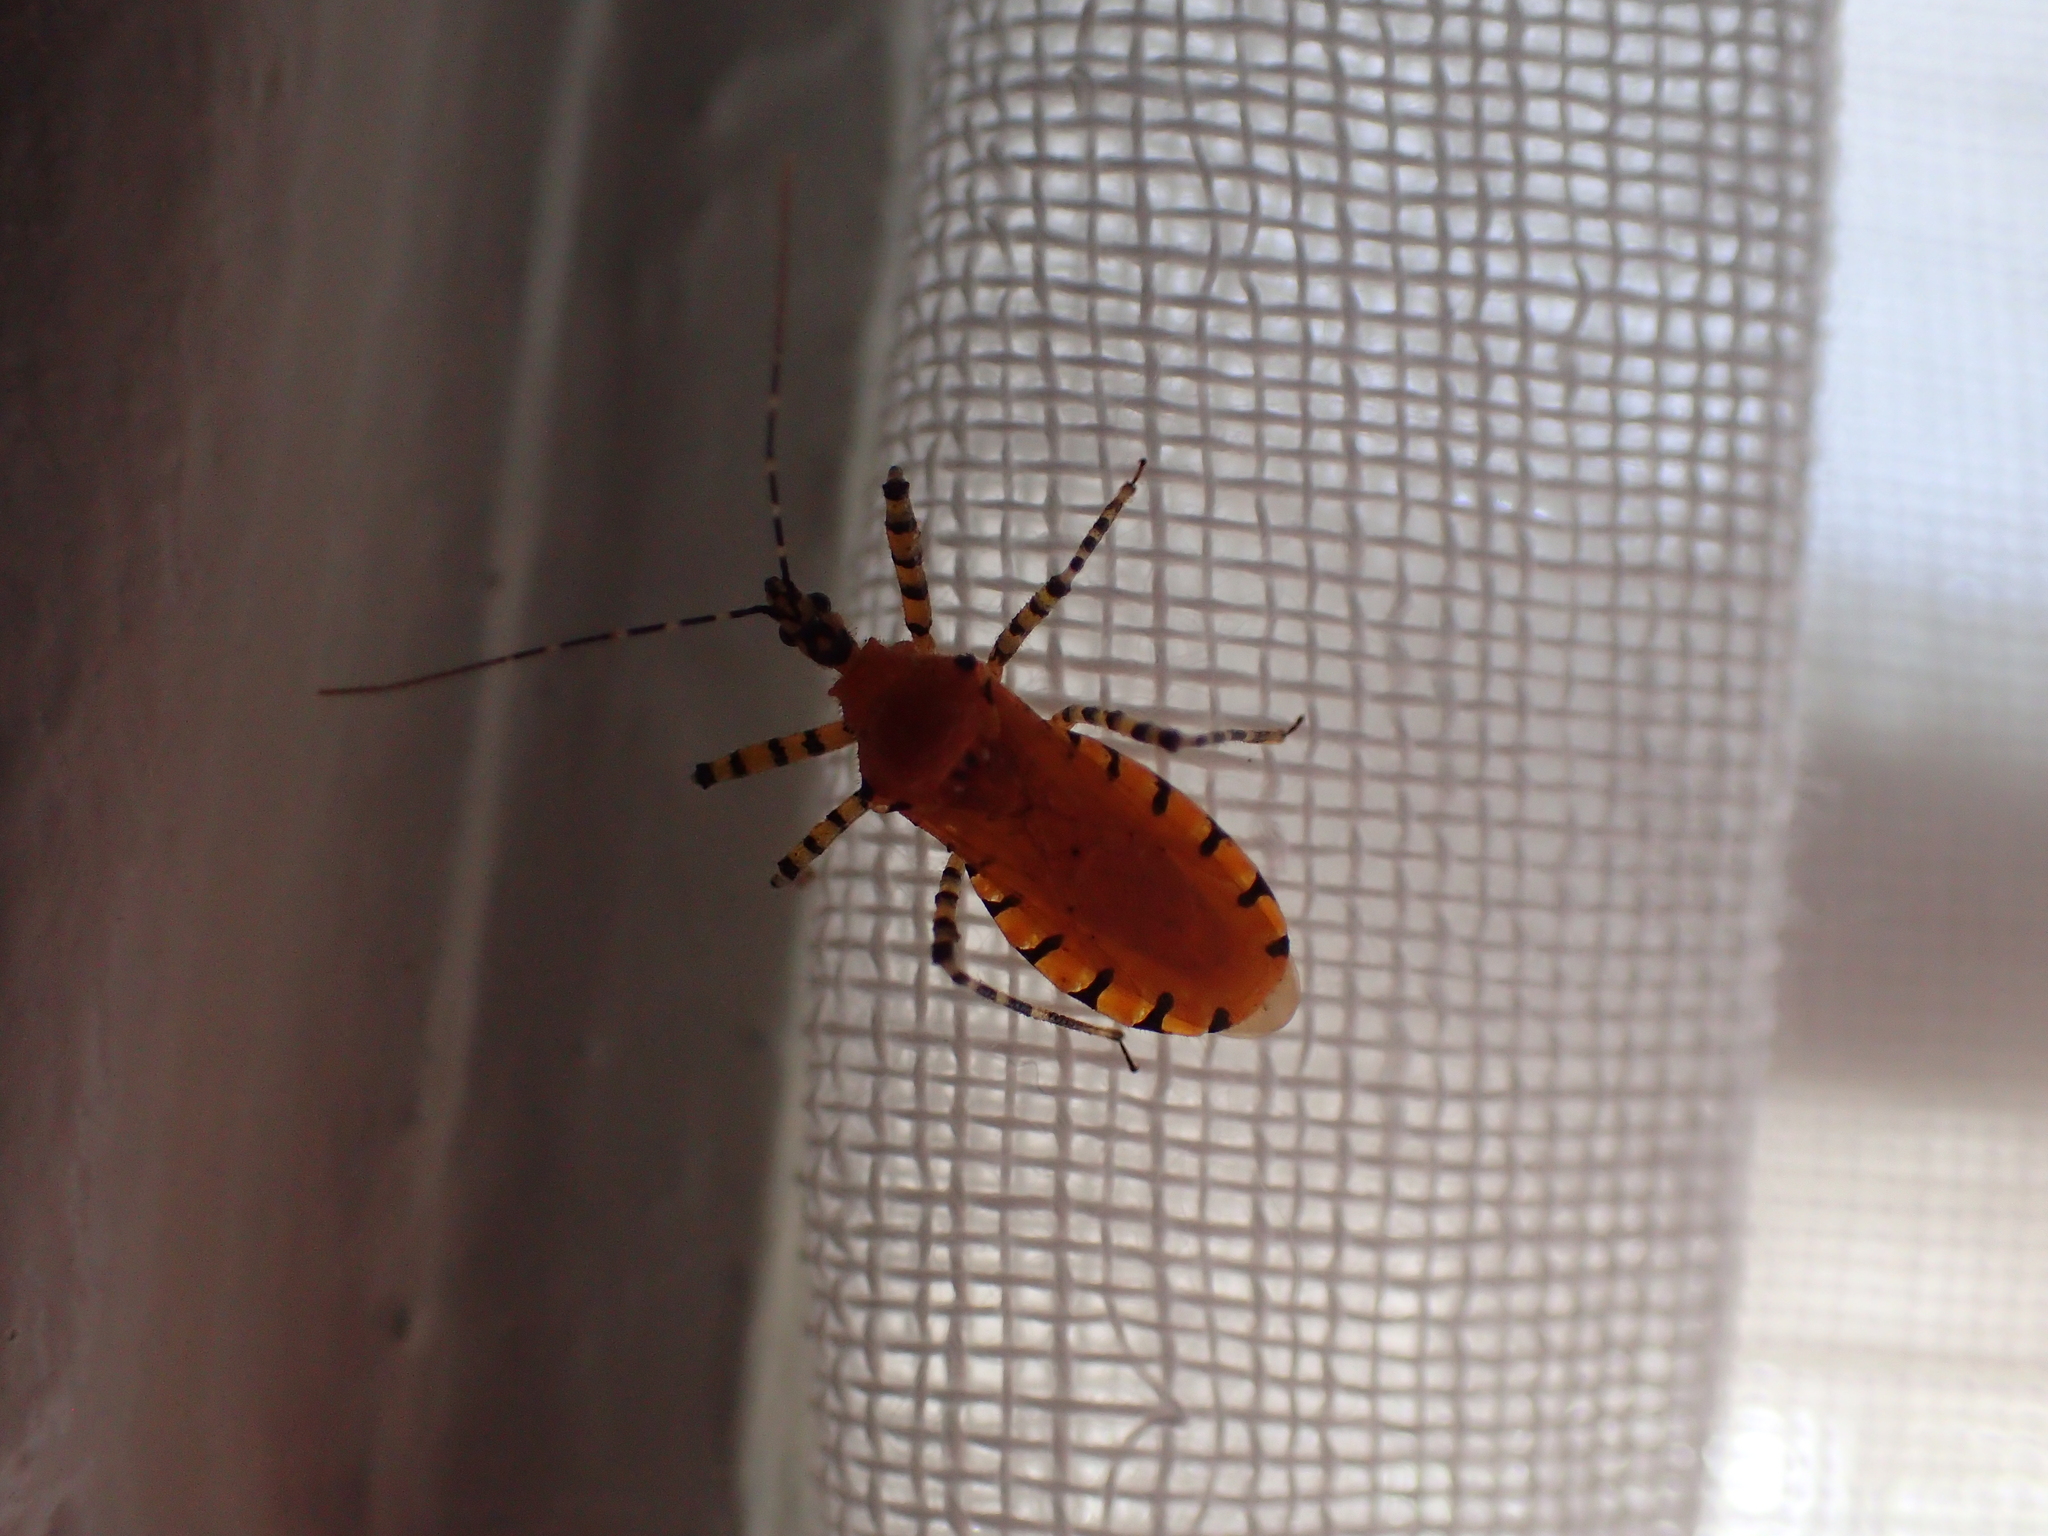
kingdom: Animalia
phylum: Arthropoda
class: Insecta
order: Hemiptera
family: Reduviidae
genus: Pselliopus
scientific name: Pselliopus barberi
